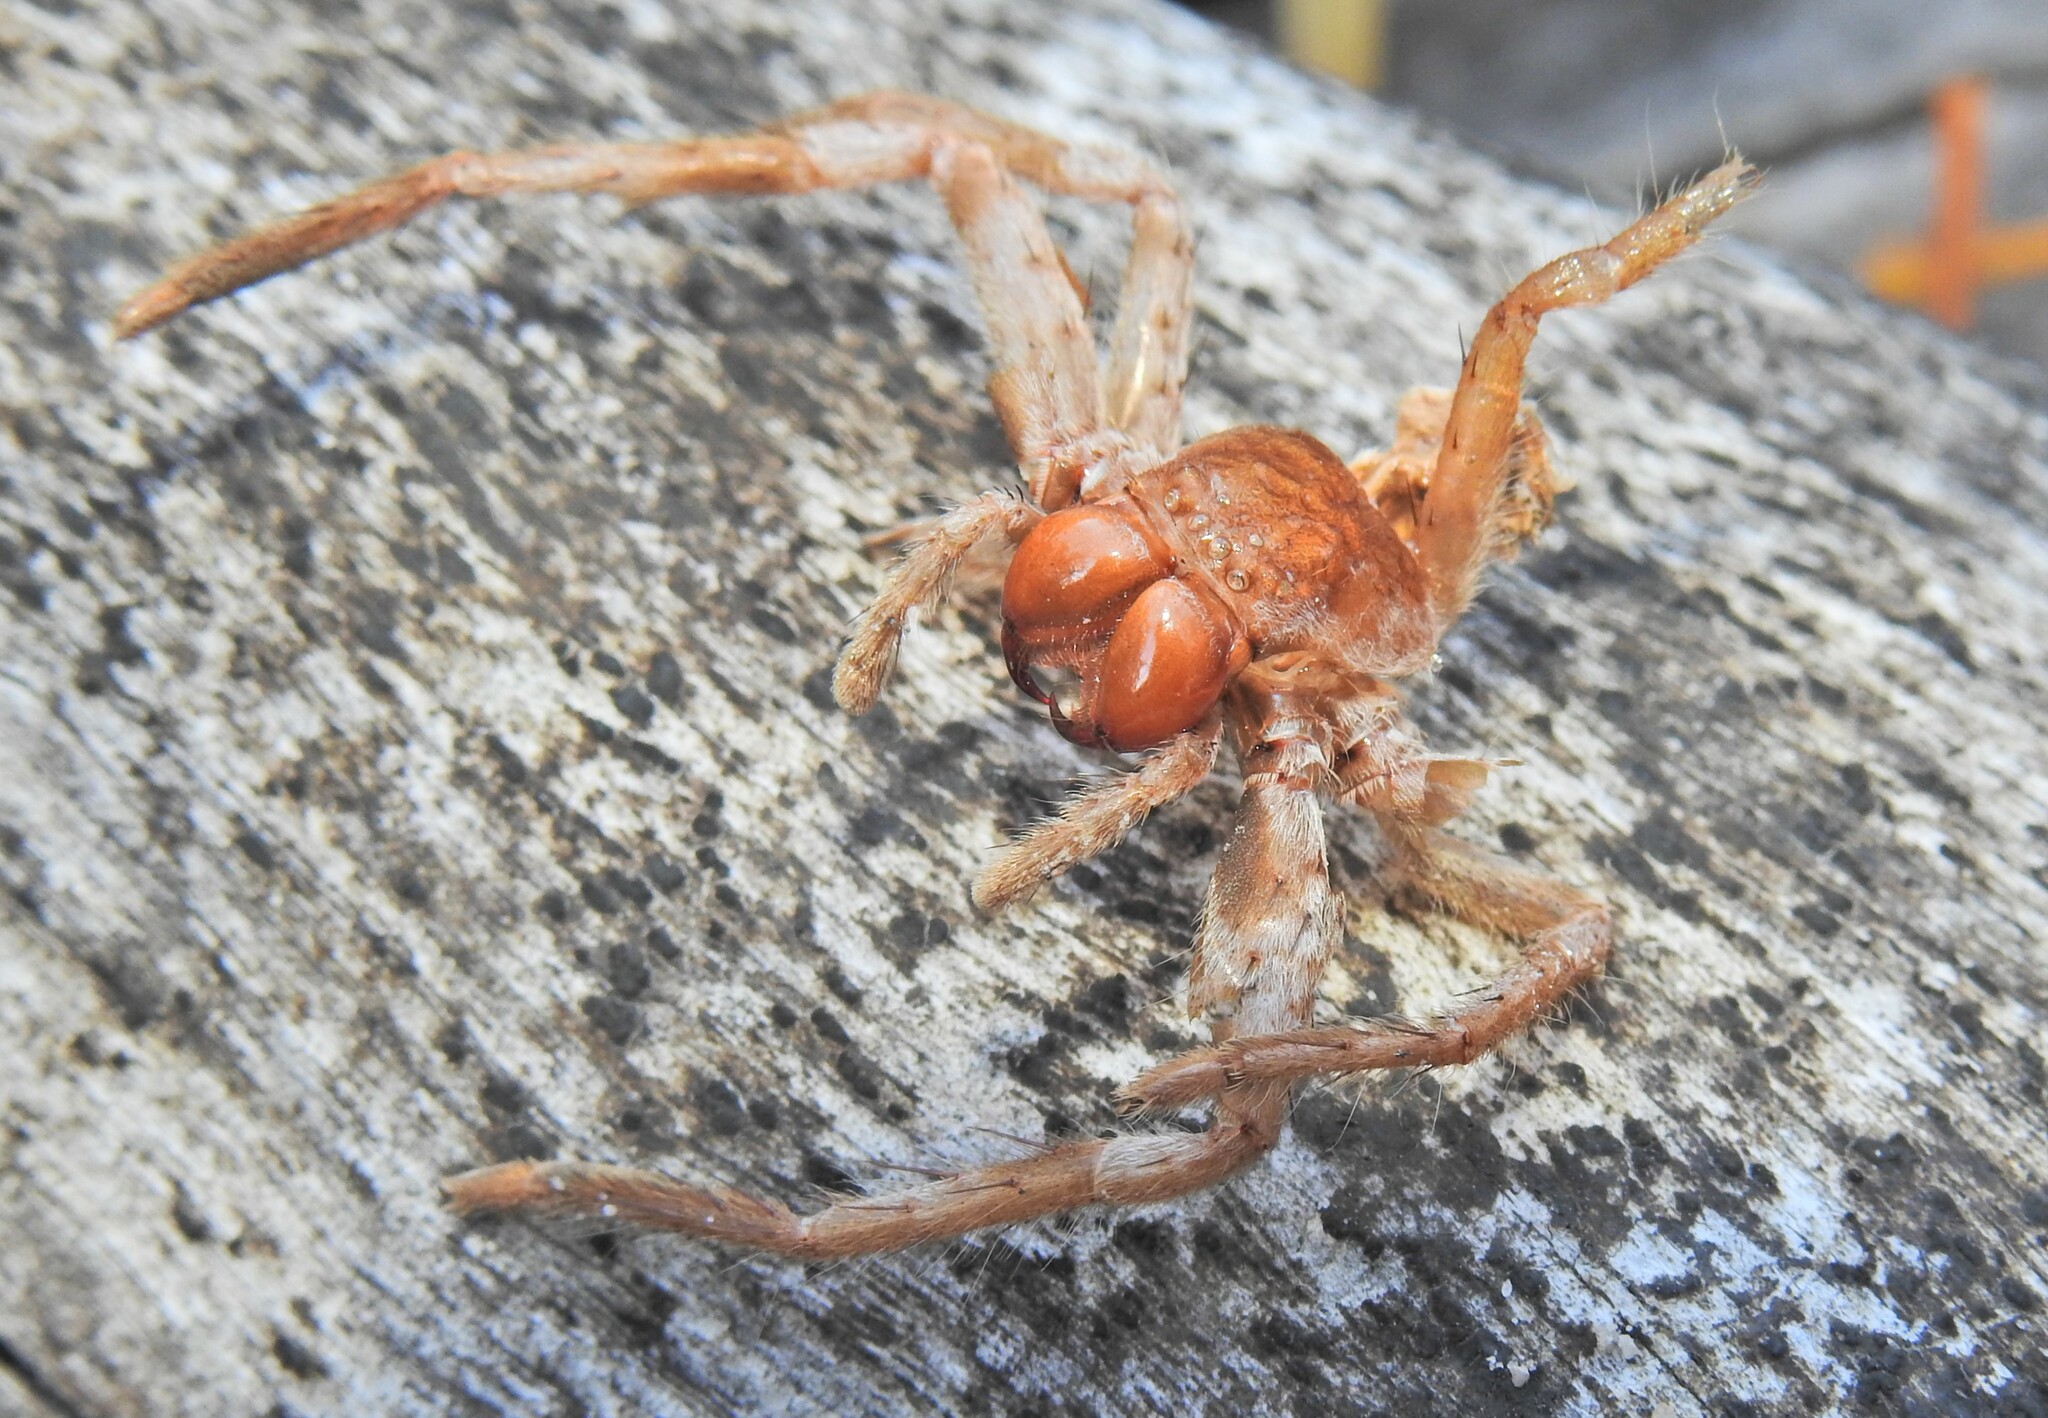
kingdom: Animalia
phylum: Arthropoda
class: Arachnida
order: Araneae
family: Sparassidae
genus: Isopeda
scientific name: Isopeda vasta
